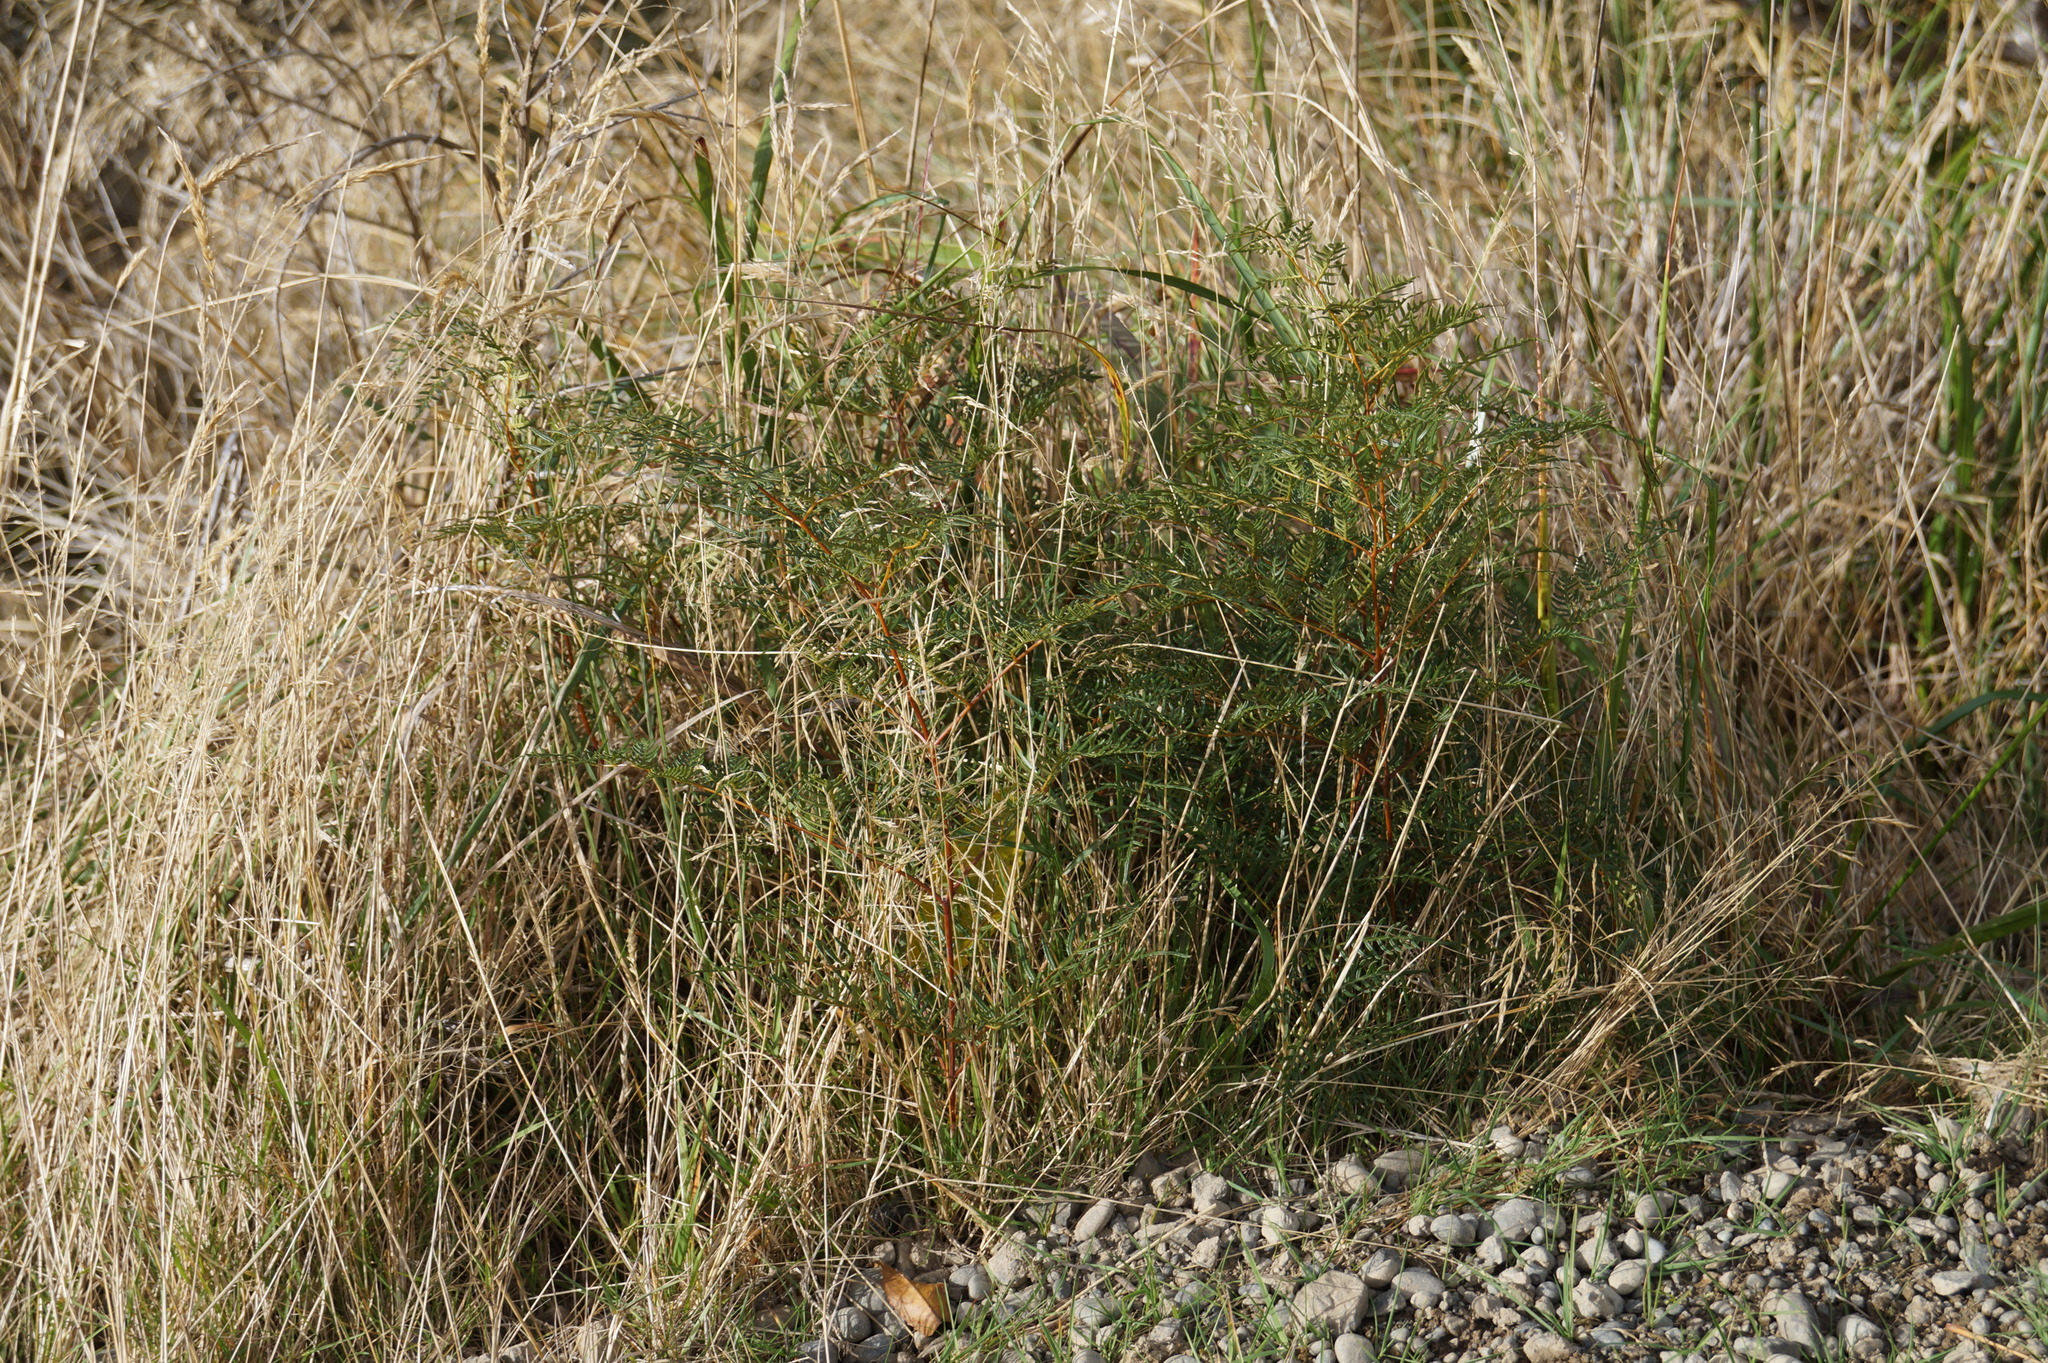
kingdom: Plantae
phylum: Tracheophyta
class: Polypodiopsida
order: Polypodiales
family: Dennstaedtiaceae
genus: Pteridium
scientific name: Pteridium esculentum
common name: Bracken fern
